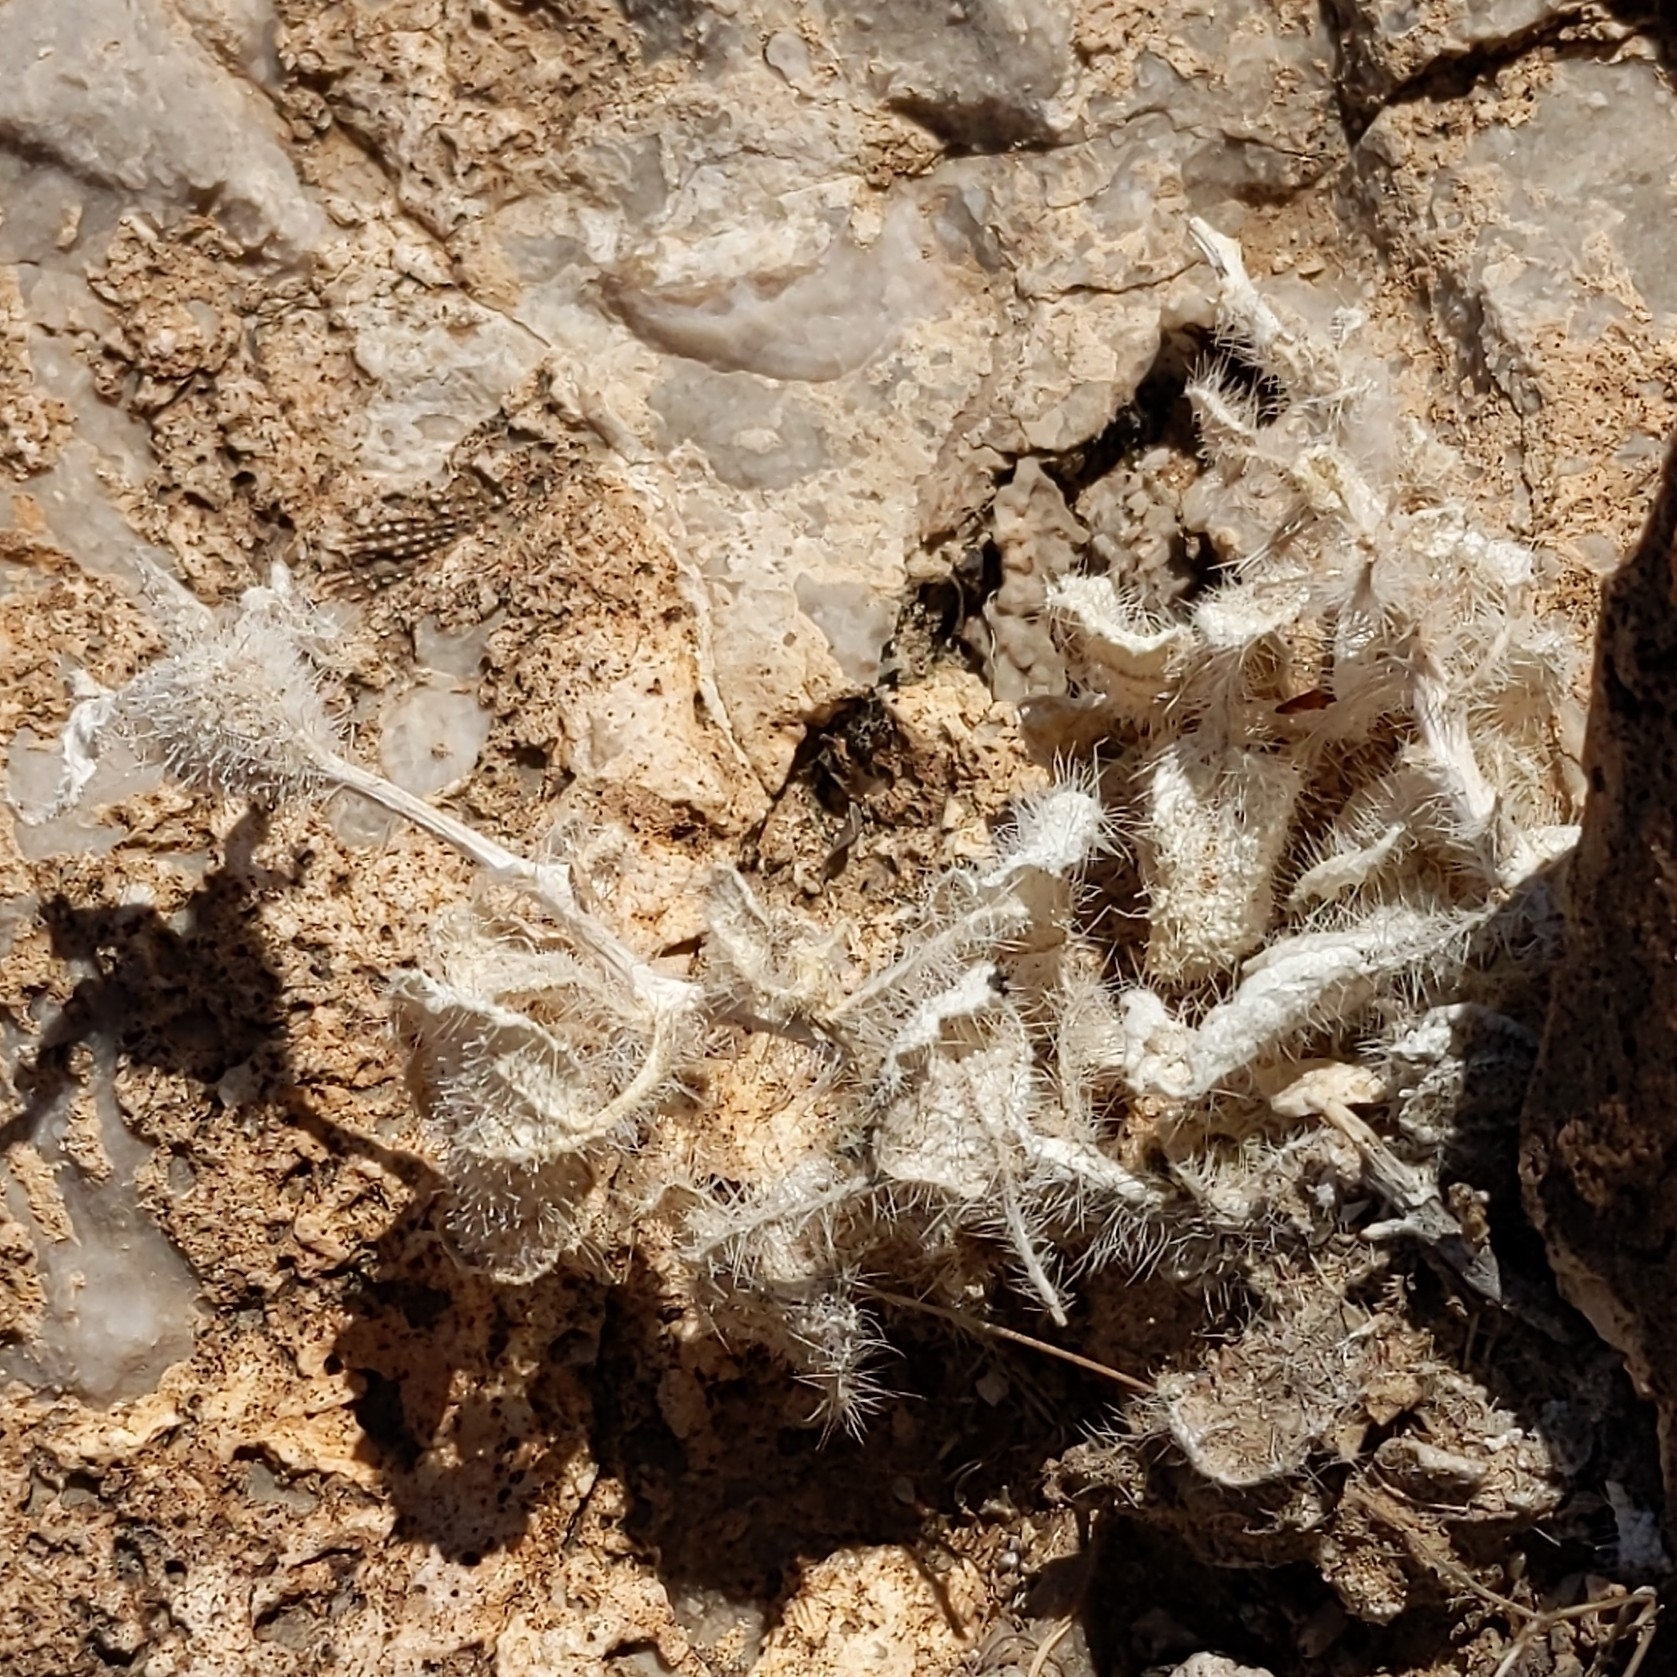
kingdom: Plantae
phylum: Tracheophyta
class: Magnoliopsida
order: Cornales
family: Loasaceae
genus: Eucnide
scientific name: Eucnide urens
